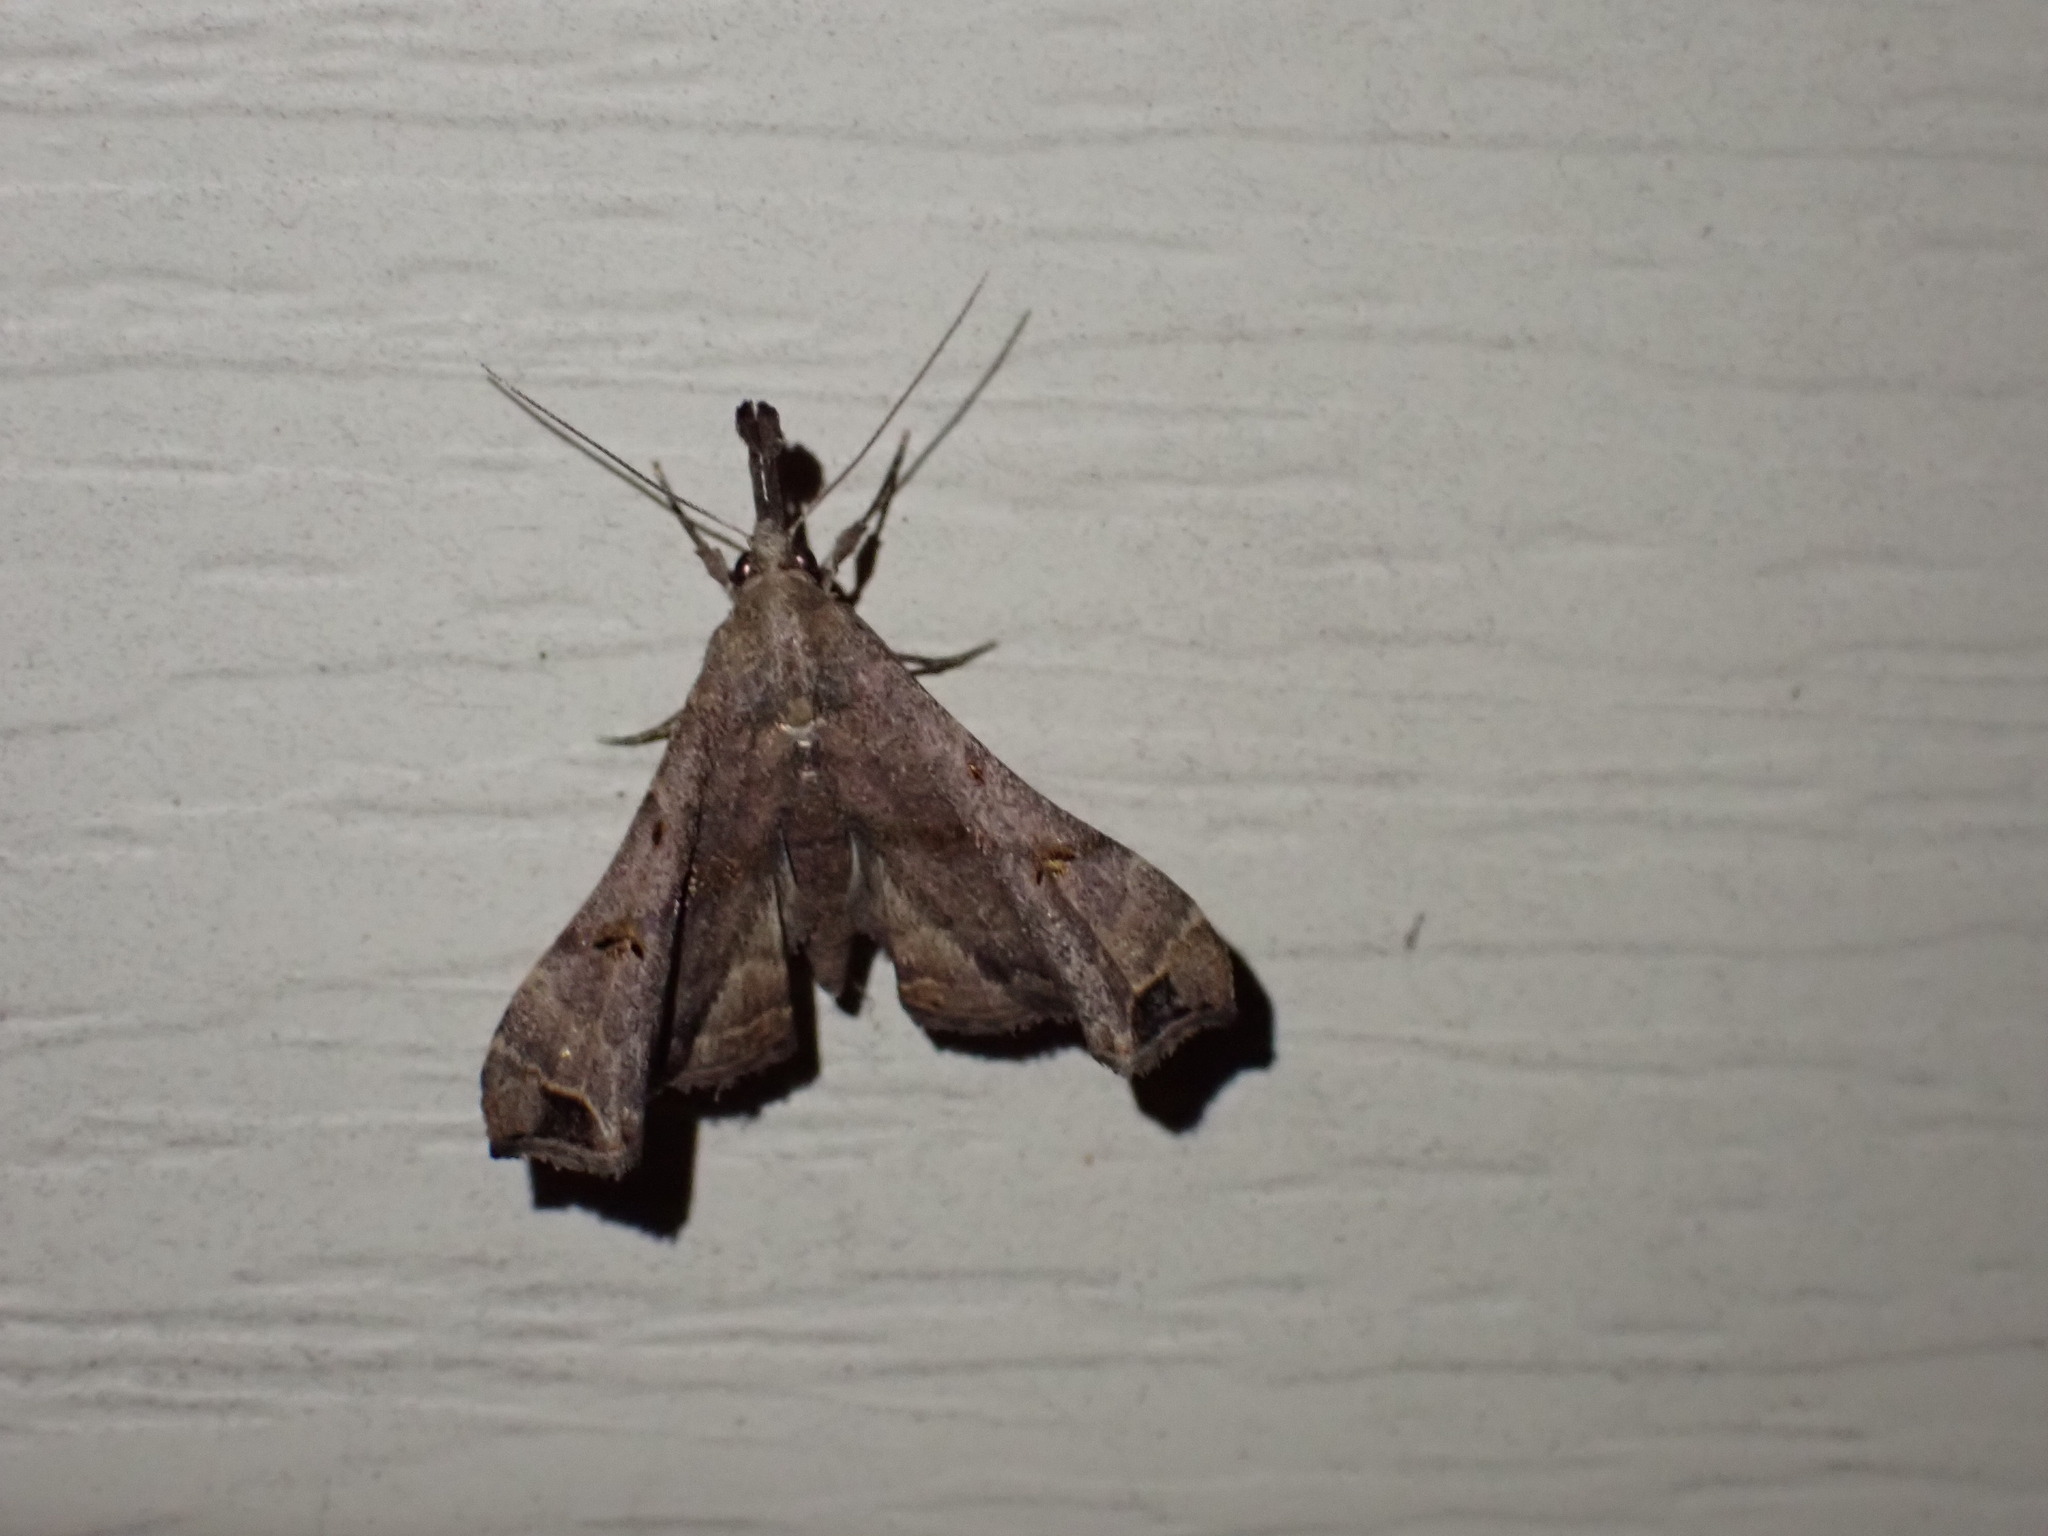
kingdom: Animalia
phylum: Arthropoda
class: Insecta
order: Lepidoptera
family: Erebidae
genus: Palthis
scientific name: Palthis asopialis
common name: Faint-spotted palthis moth
